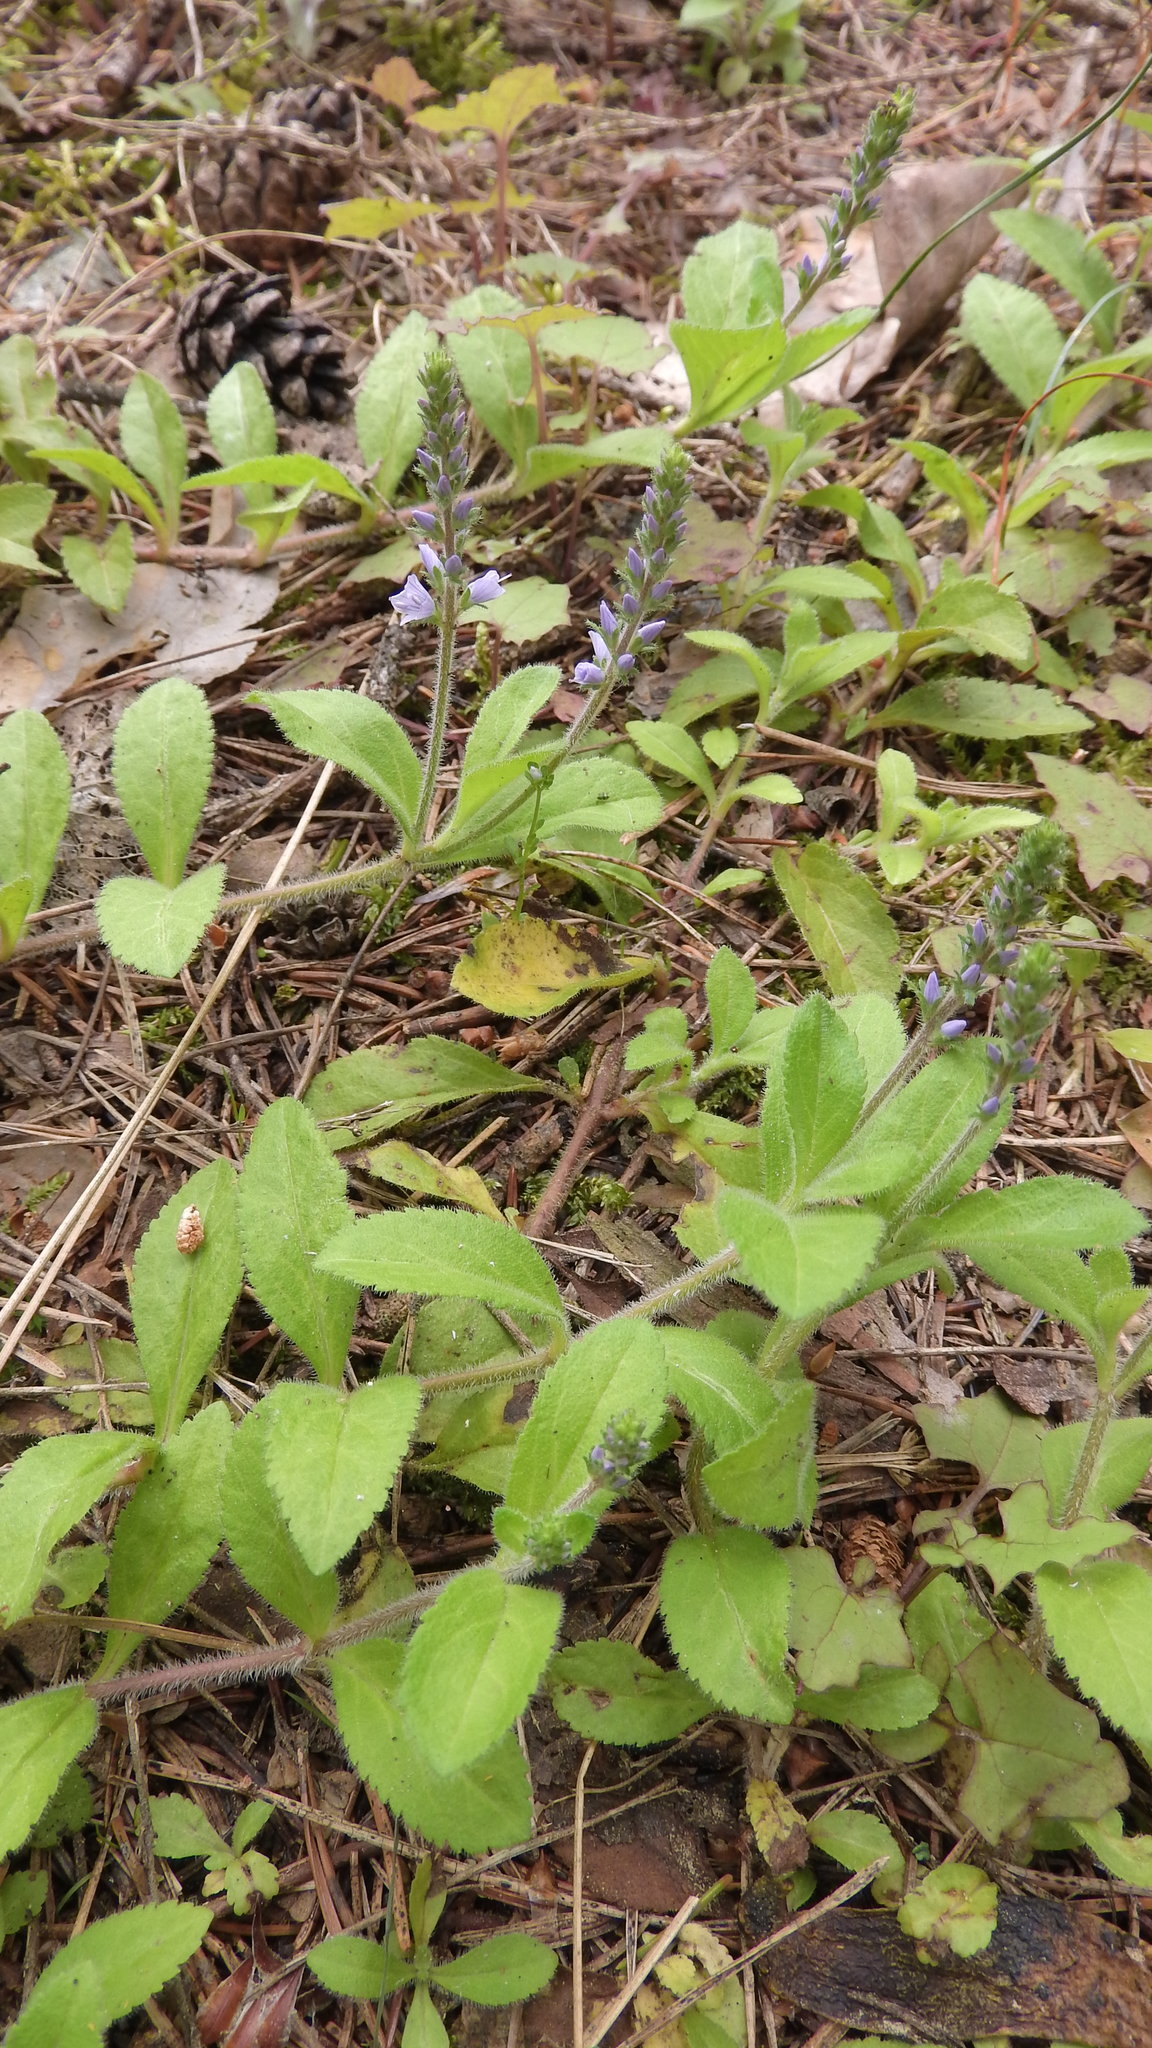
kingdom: Plantae
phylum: Tracheophyta
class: Magnoliopsida
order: Lamiales
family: Plantaginaceae
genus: Veronica
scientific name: Veronica officinalis
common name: Common speedwell
